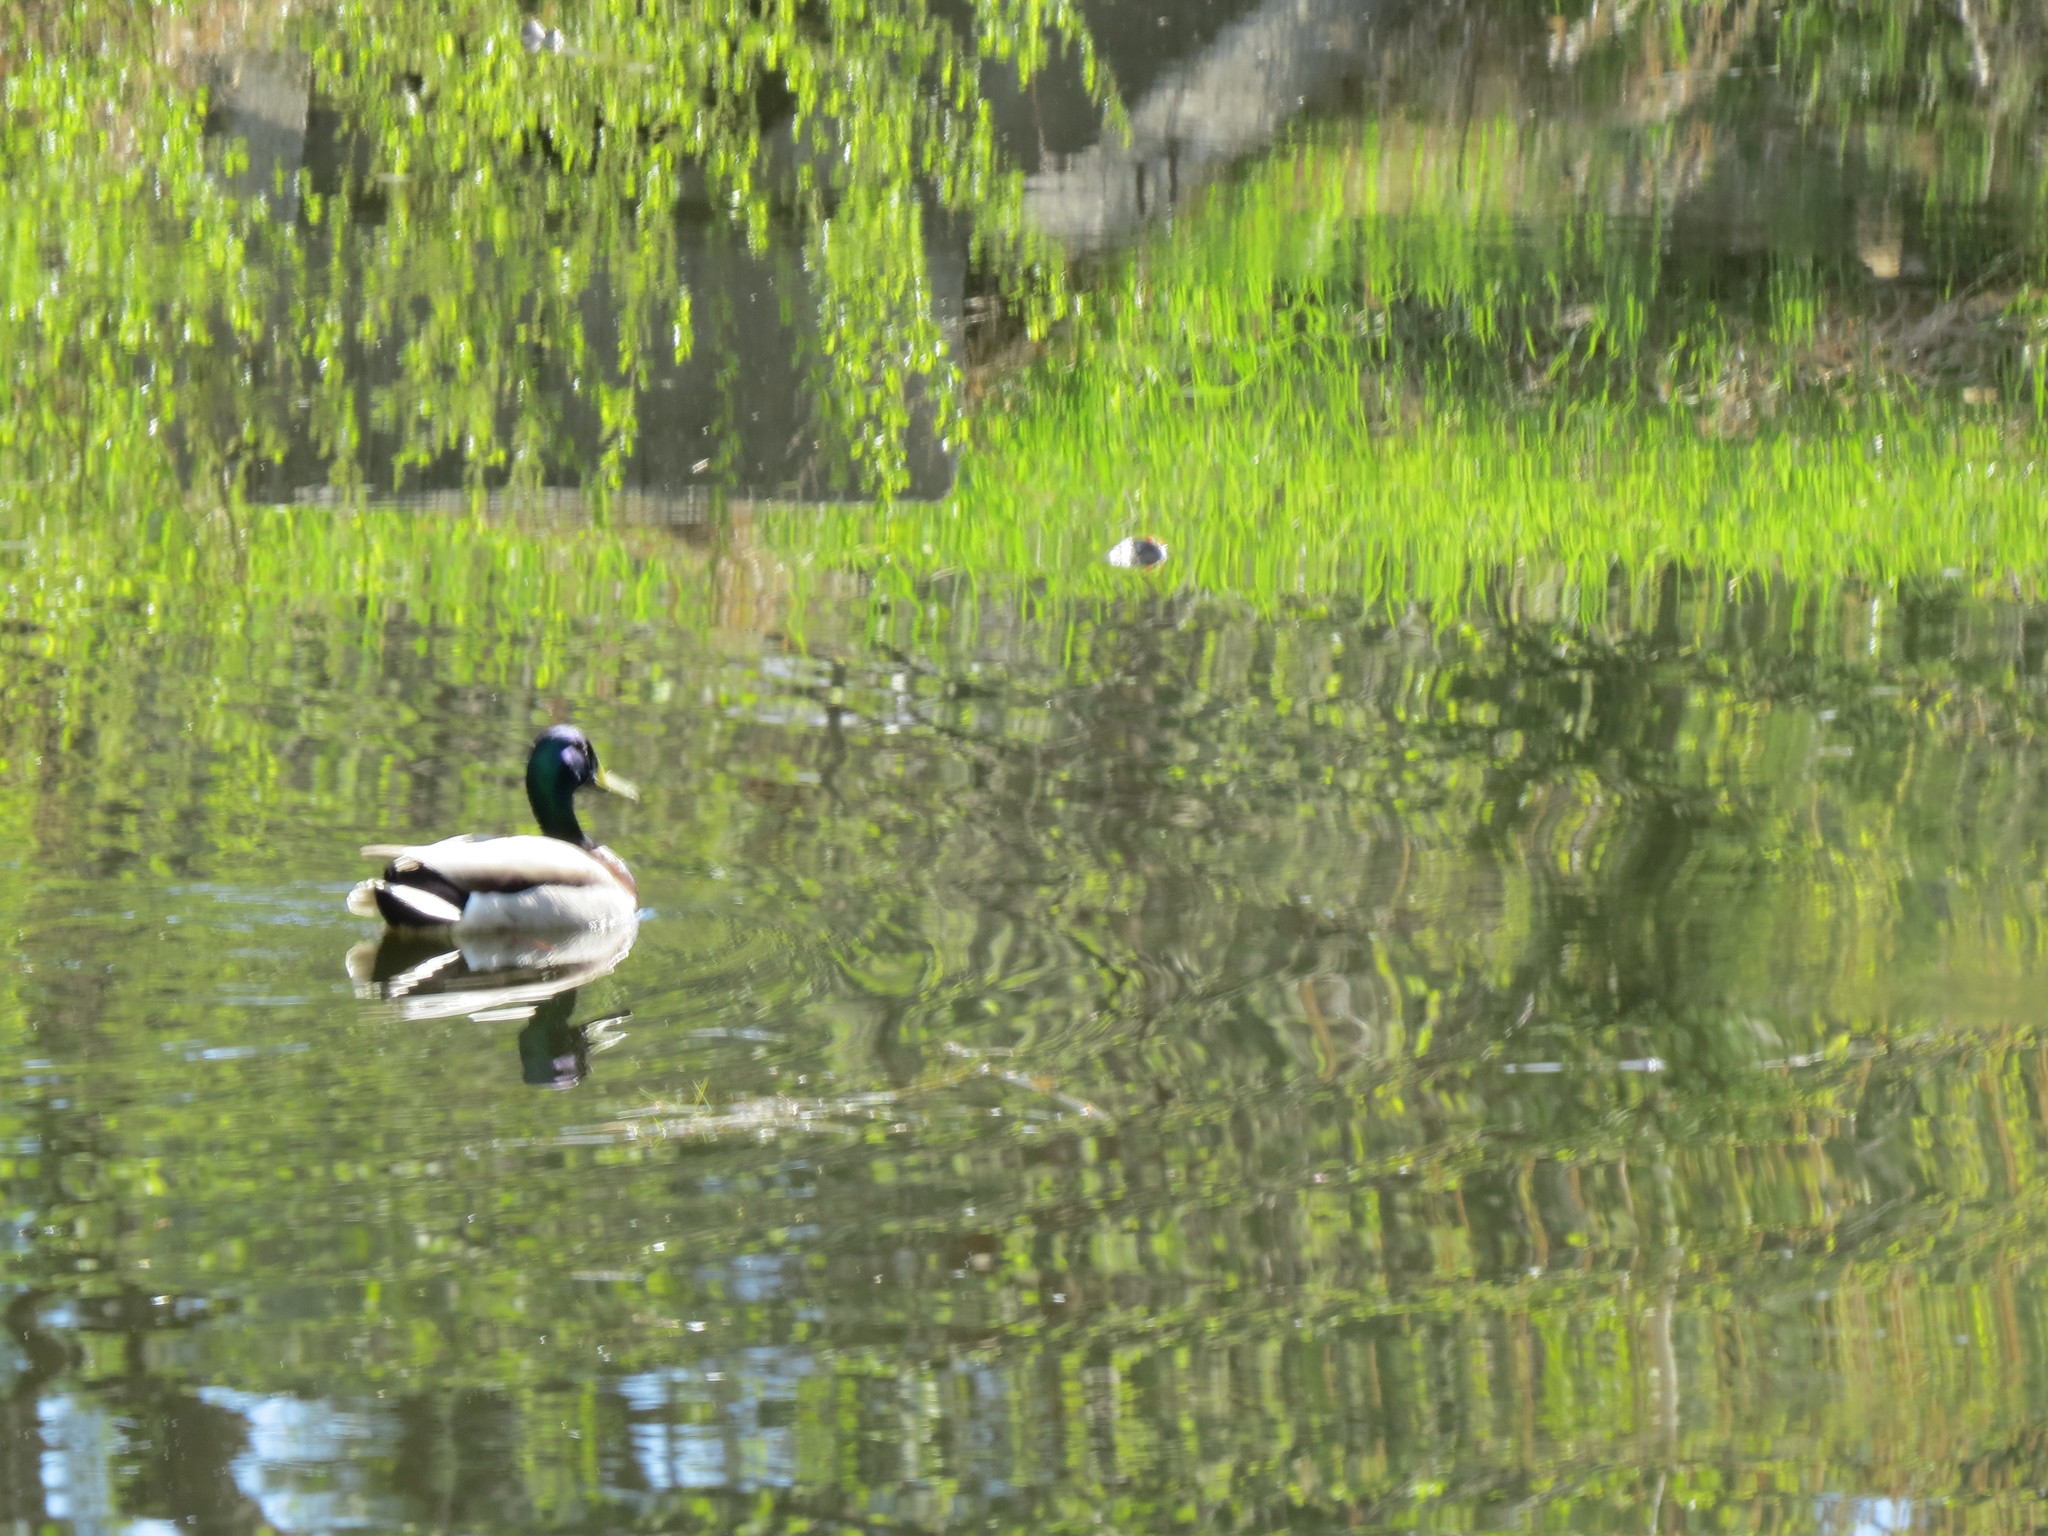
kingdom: Animalia
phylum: Chordata
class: Aves
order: Anseriformes
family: Anatidae
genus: Anas
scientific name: Anas platyrhynchos
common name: Mallard
